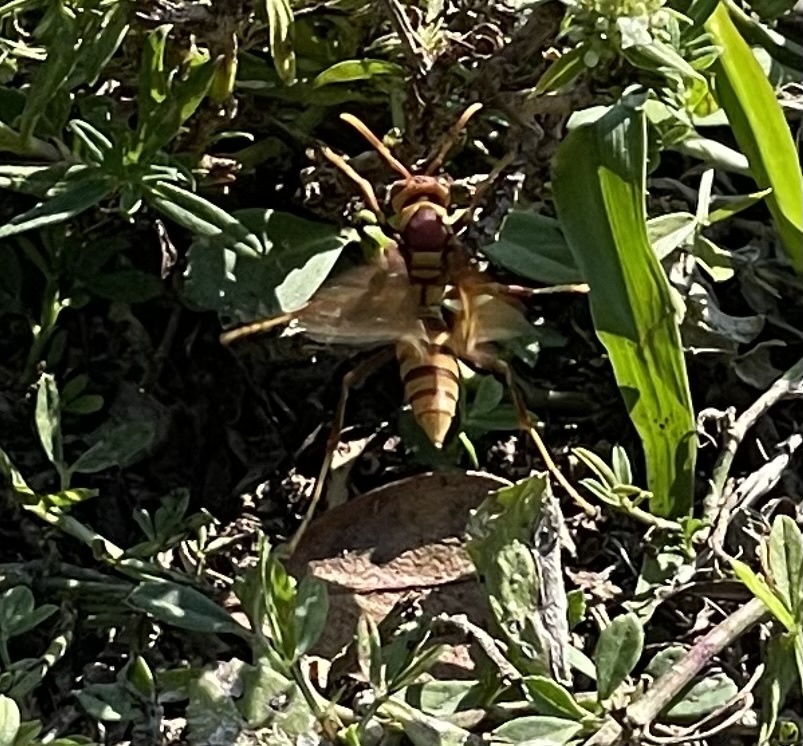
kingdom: Animalia
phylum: Arthropoda
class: Insecta
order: Hymenoptera
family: Eumenidae
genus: Polistes
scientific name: Polistes major
